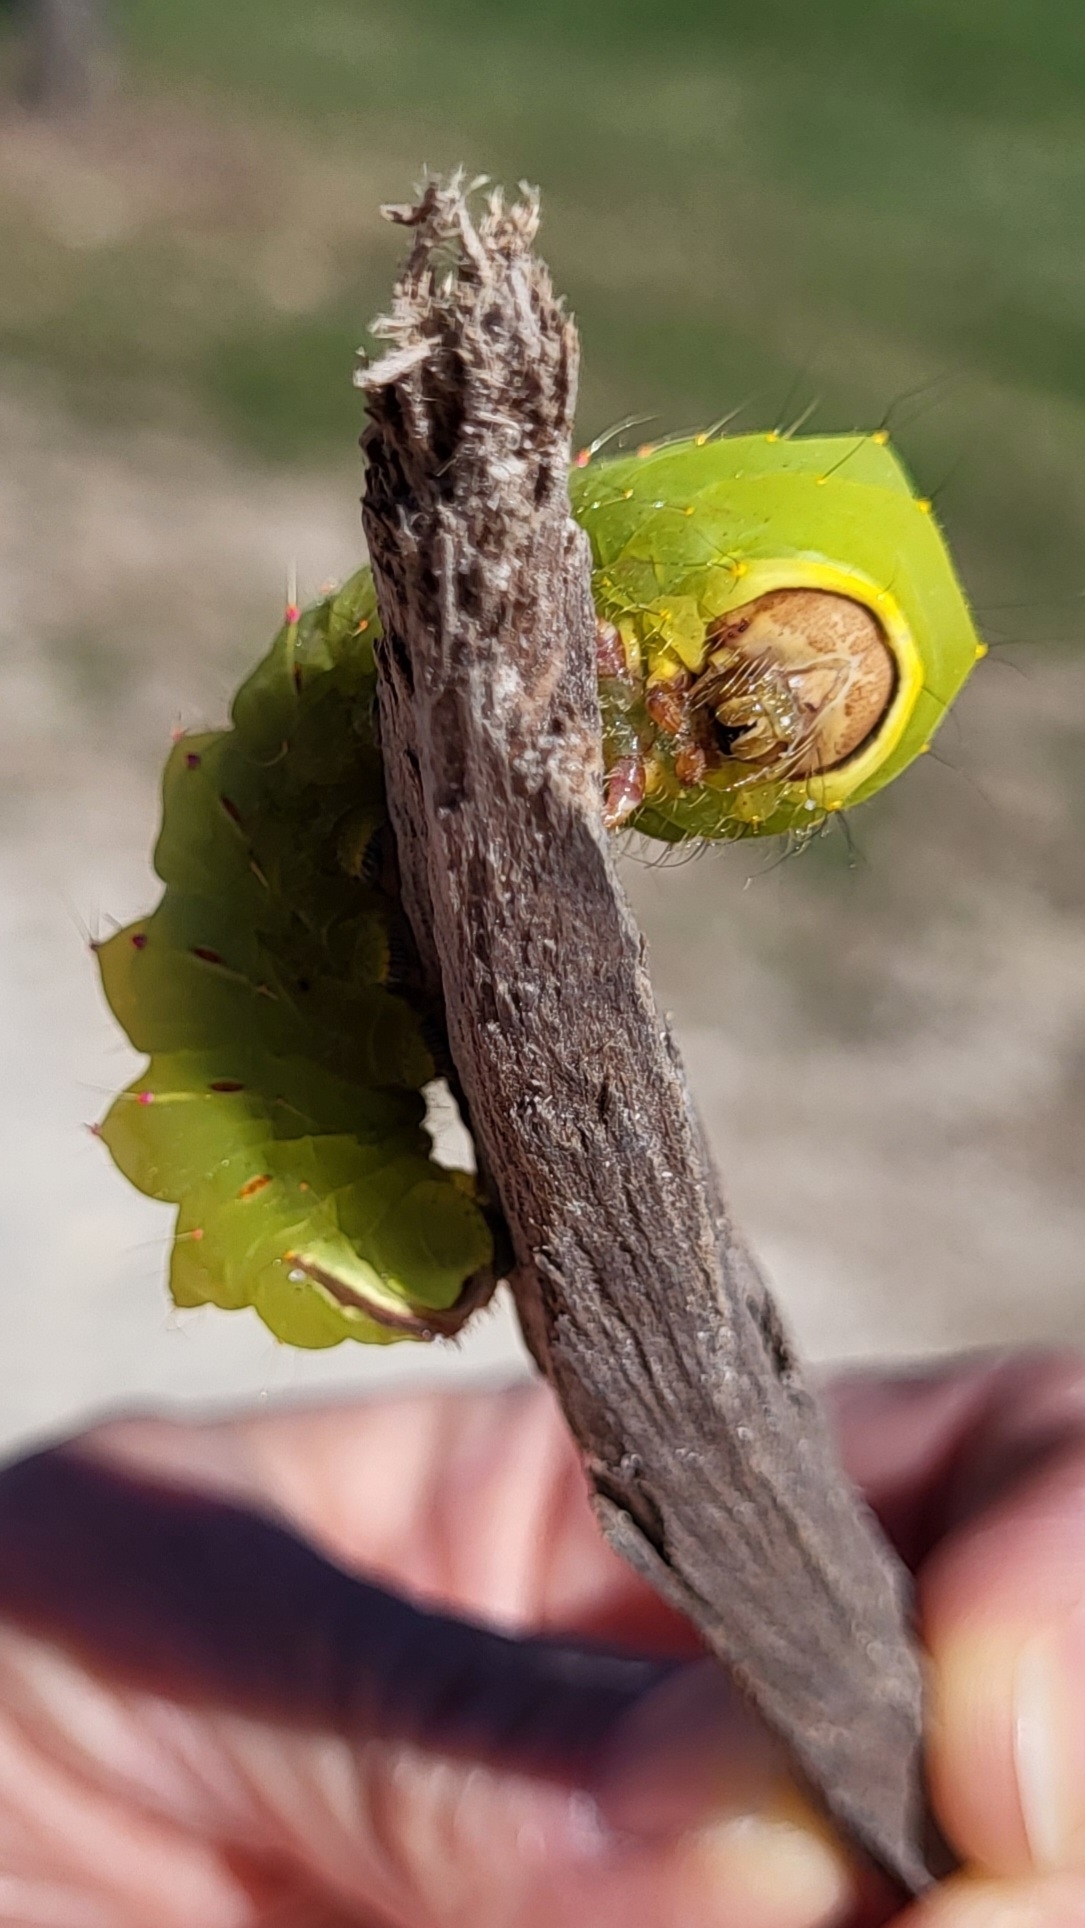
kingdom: Animalia
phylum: Arthropoda
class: Insecta
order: Lepidoptera
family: Saturniidae
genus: Antheraea
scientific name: Antheraea polyphemus
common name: Polyphemus moth
